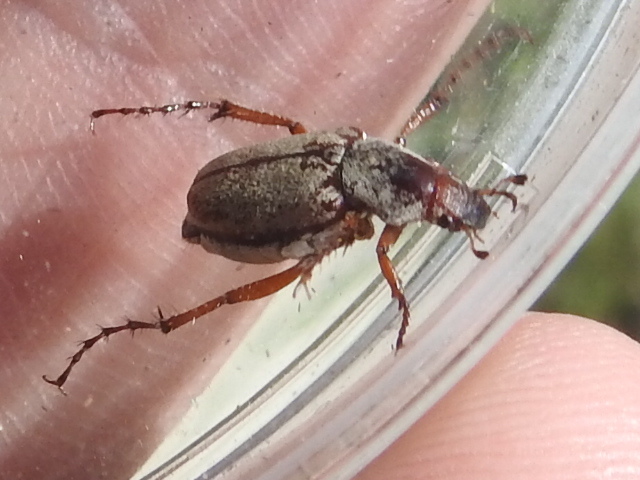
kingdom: Animalia
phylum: Arthropoda
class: Insecta
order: Coleoptera
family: Scarabaeidae
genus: Macrodactylus
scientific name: Macrodactylus uniformis
